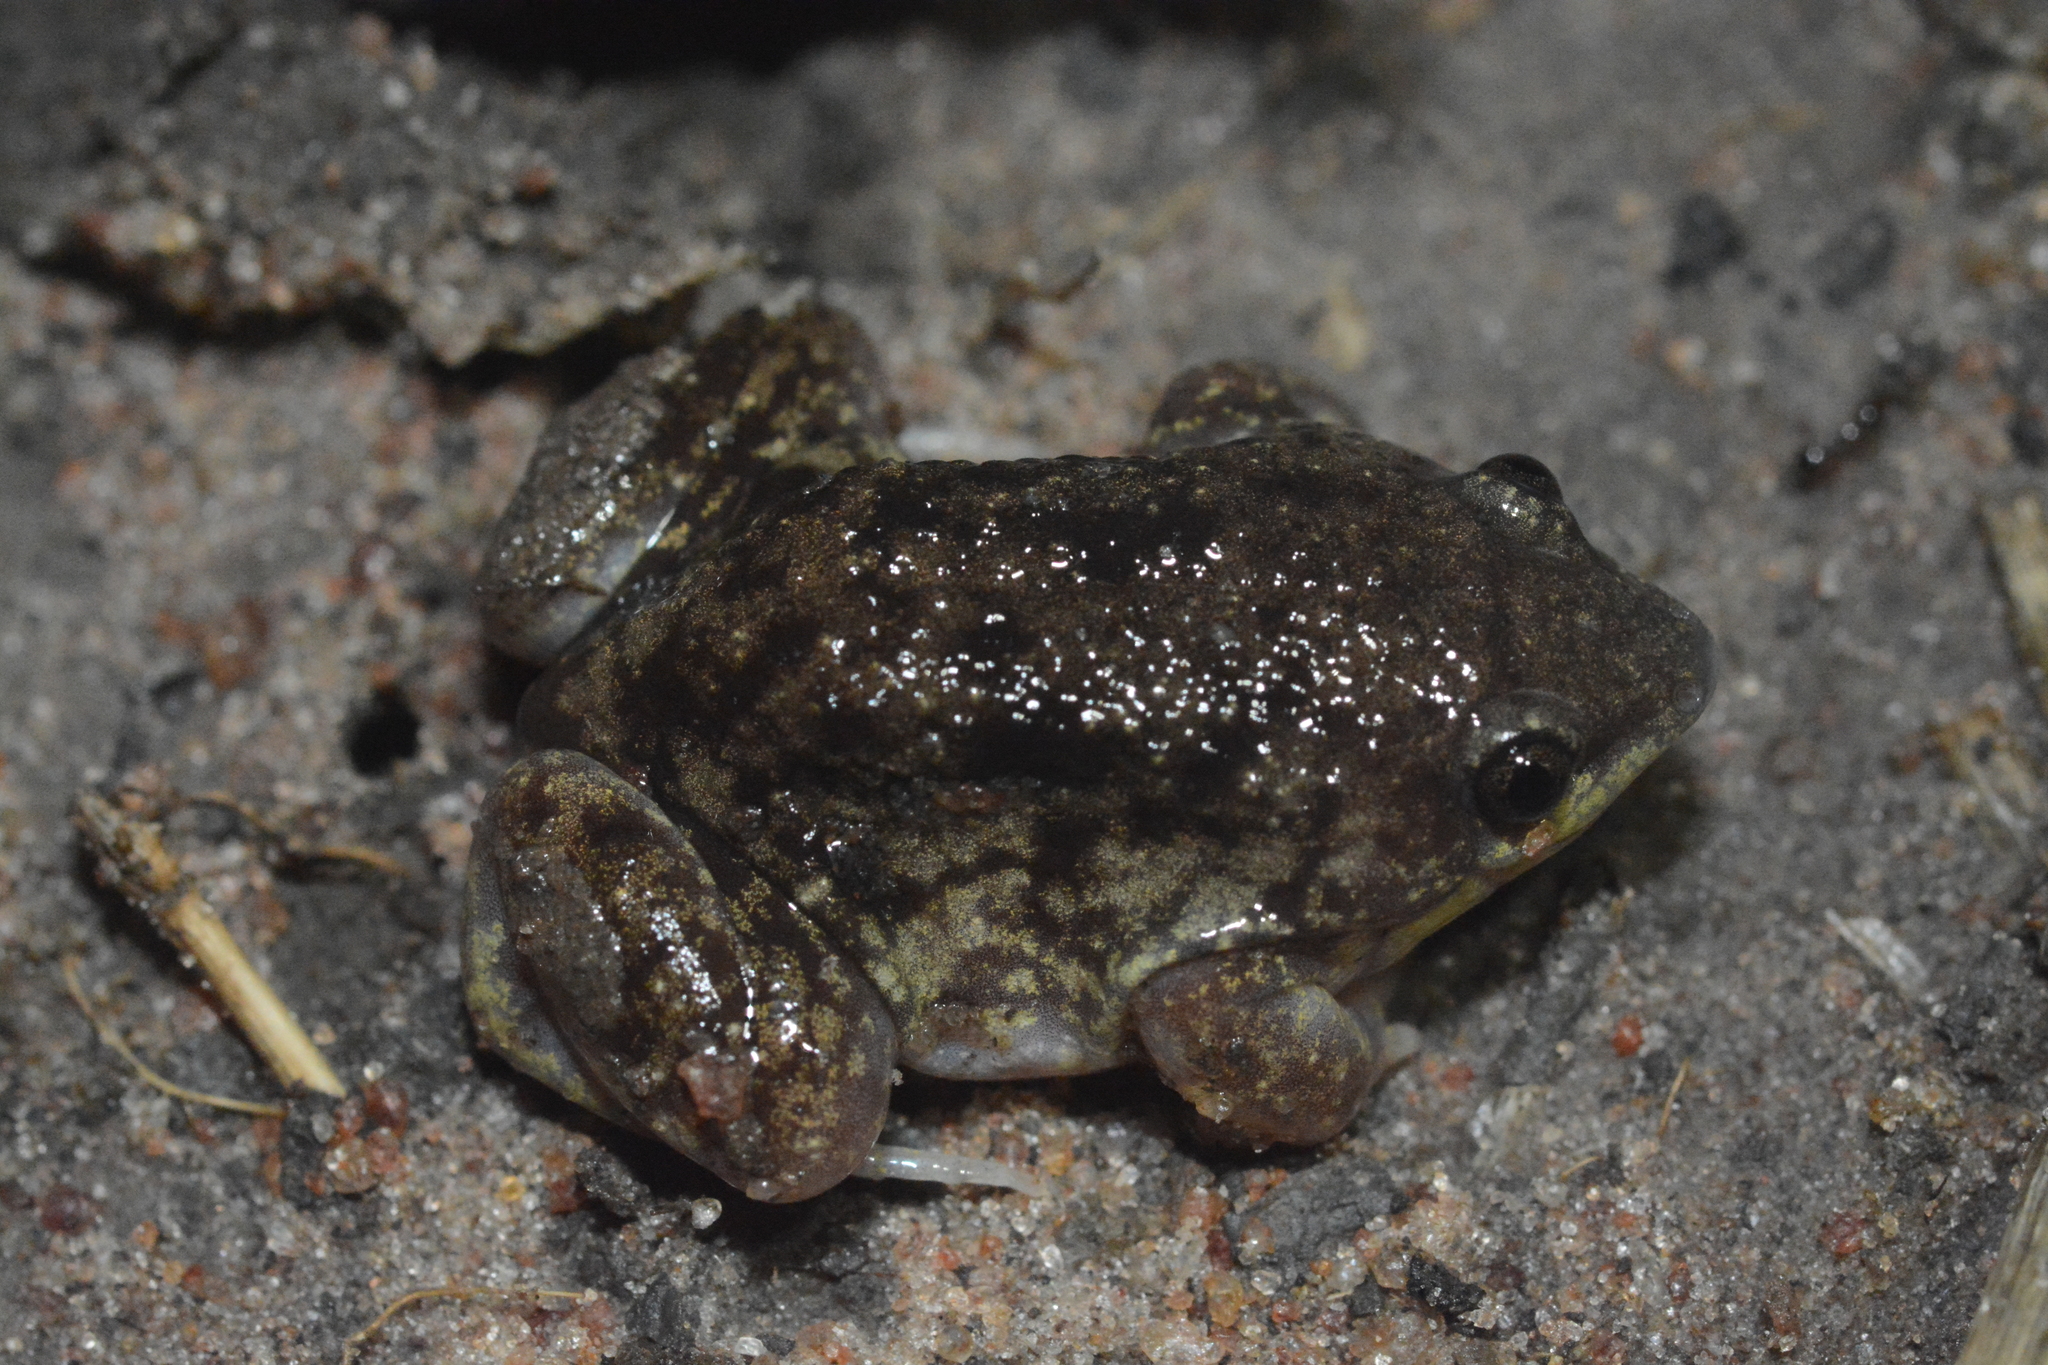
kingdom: Animalia
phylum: Chordata
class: Amphibia
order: Anura
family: Hemisotidae
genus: Hemisus
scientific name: Hemisus marmoratus
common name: Mottled shovel-nosed frog
